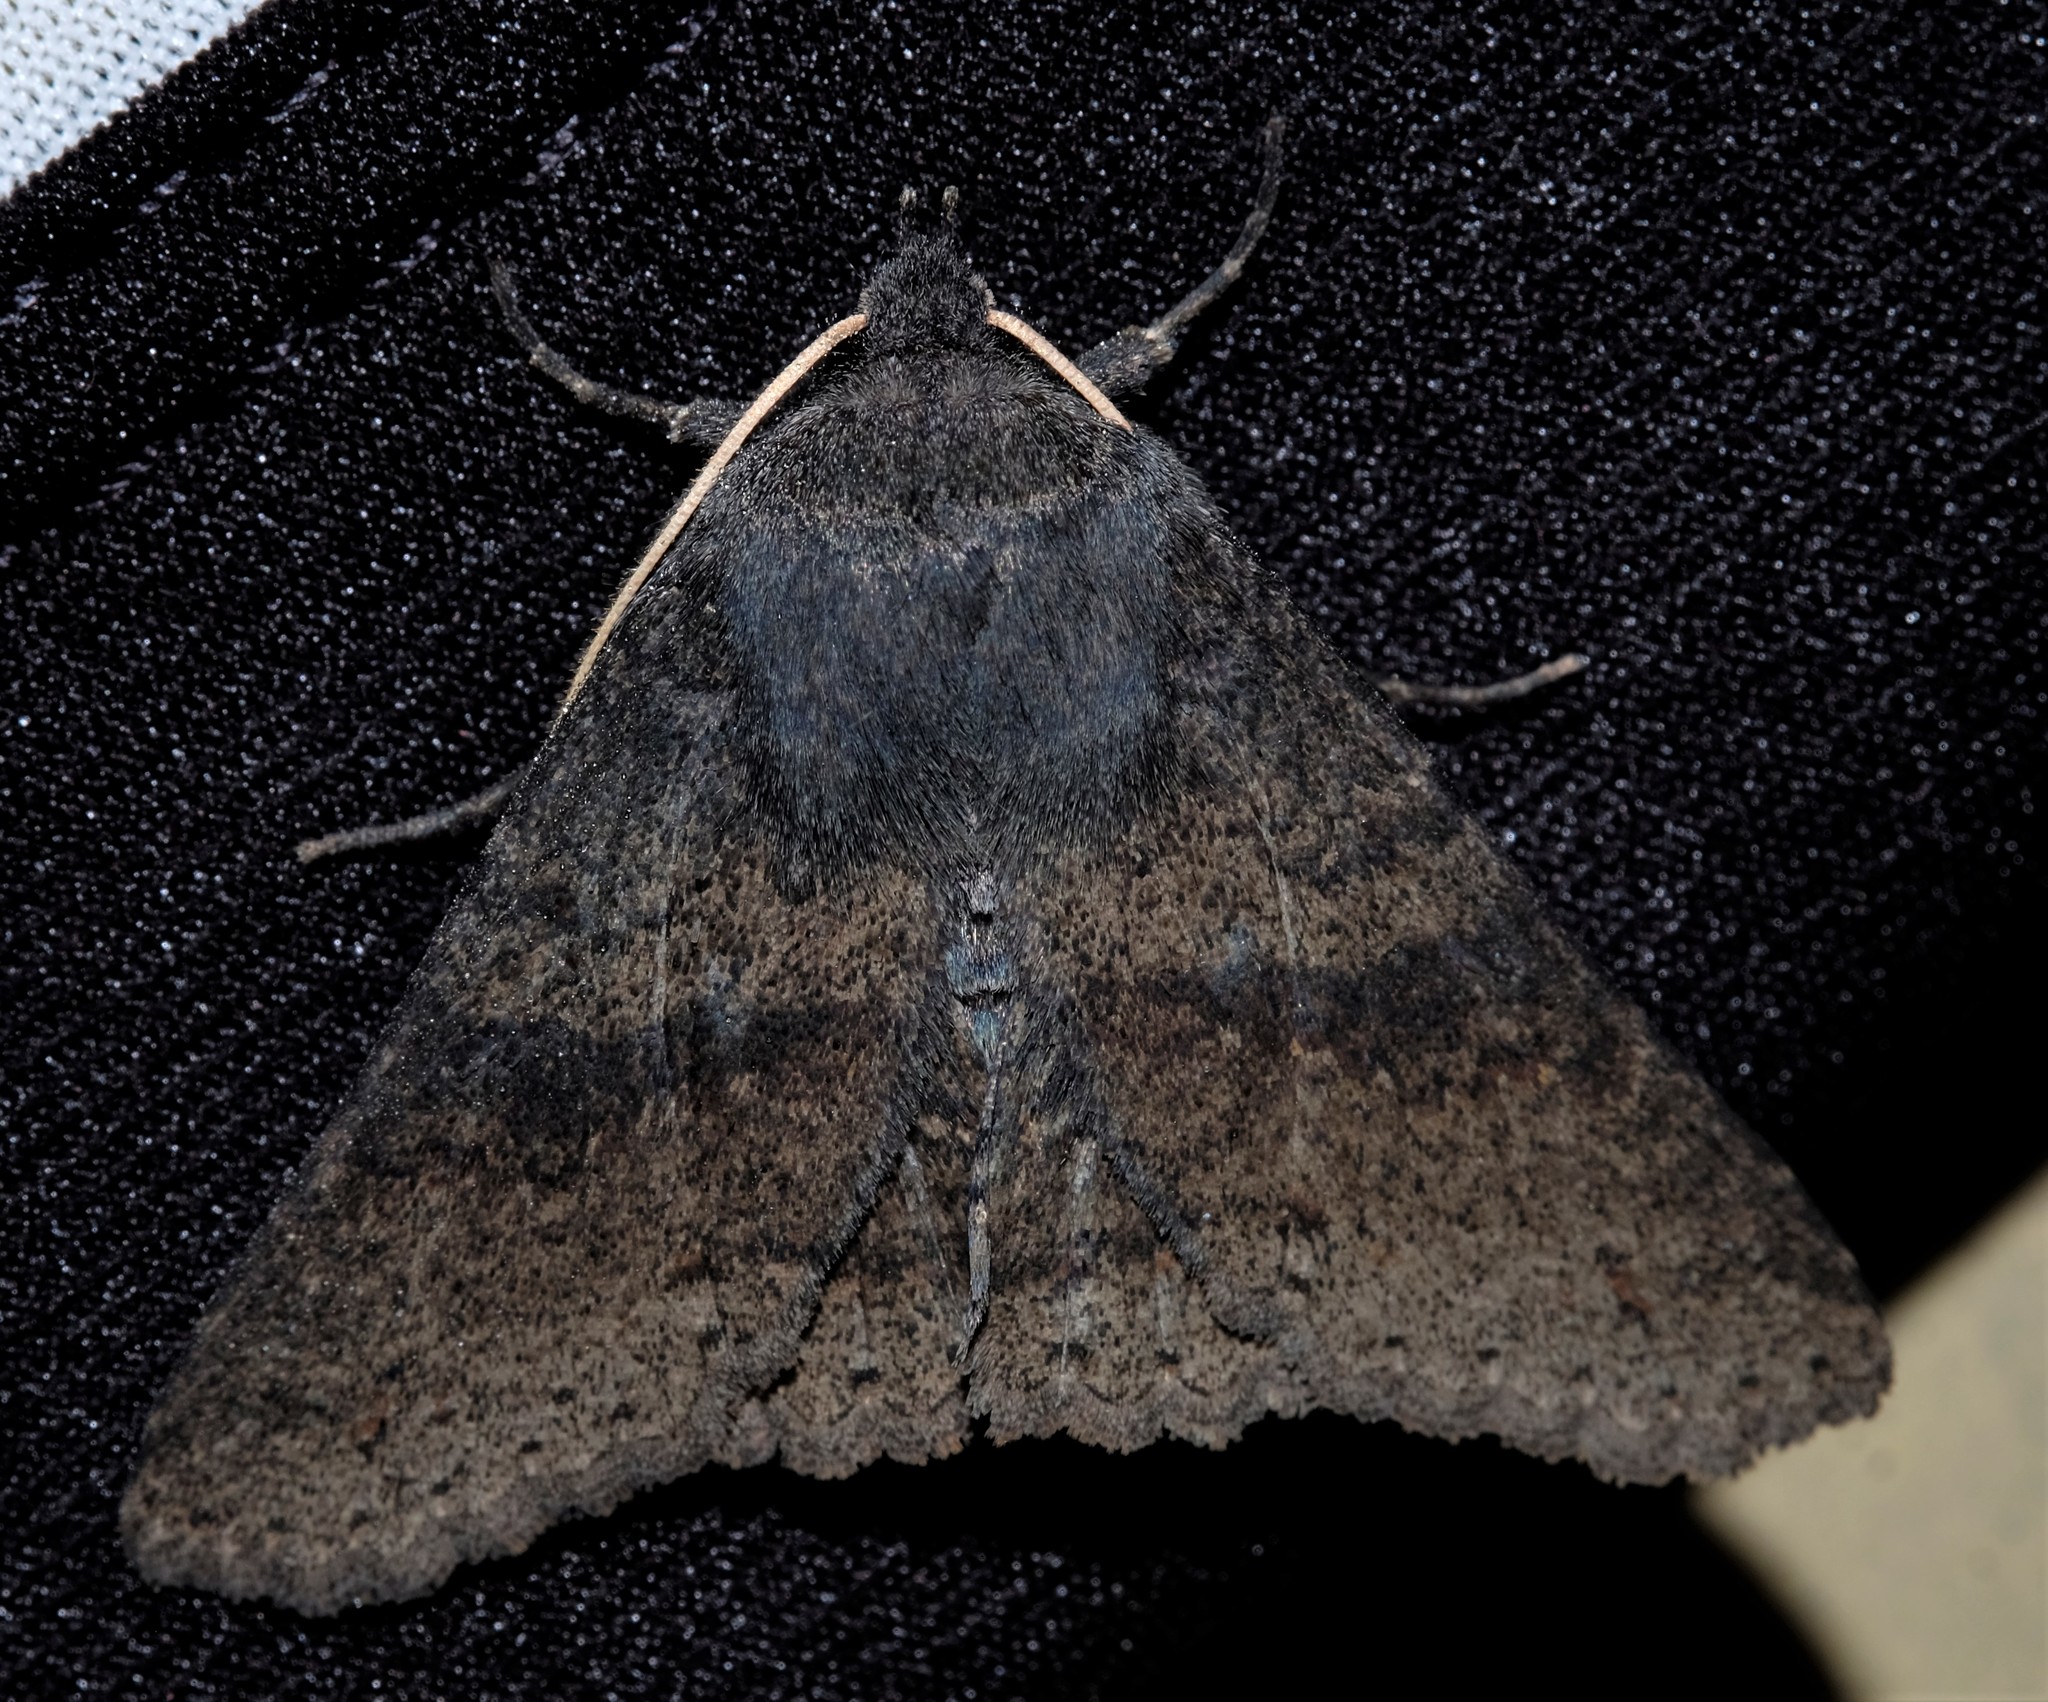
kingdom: Animalia
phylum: Arthropoda
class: Insecta
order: Lepidoptera
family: Erebidae
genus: Praxis
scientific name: Praxis pandesma
